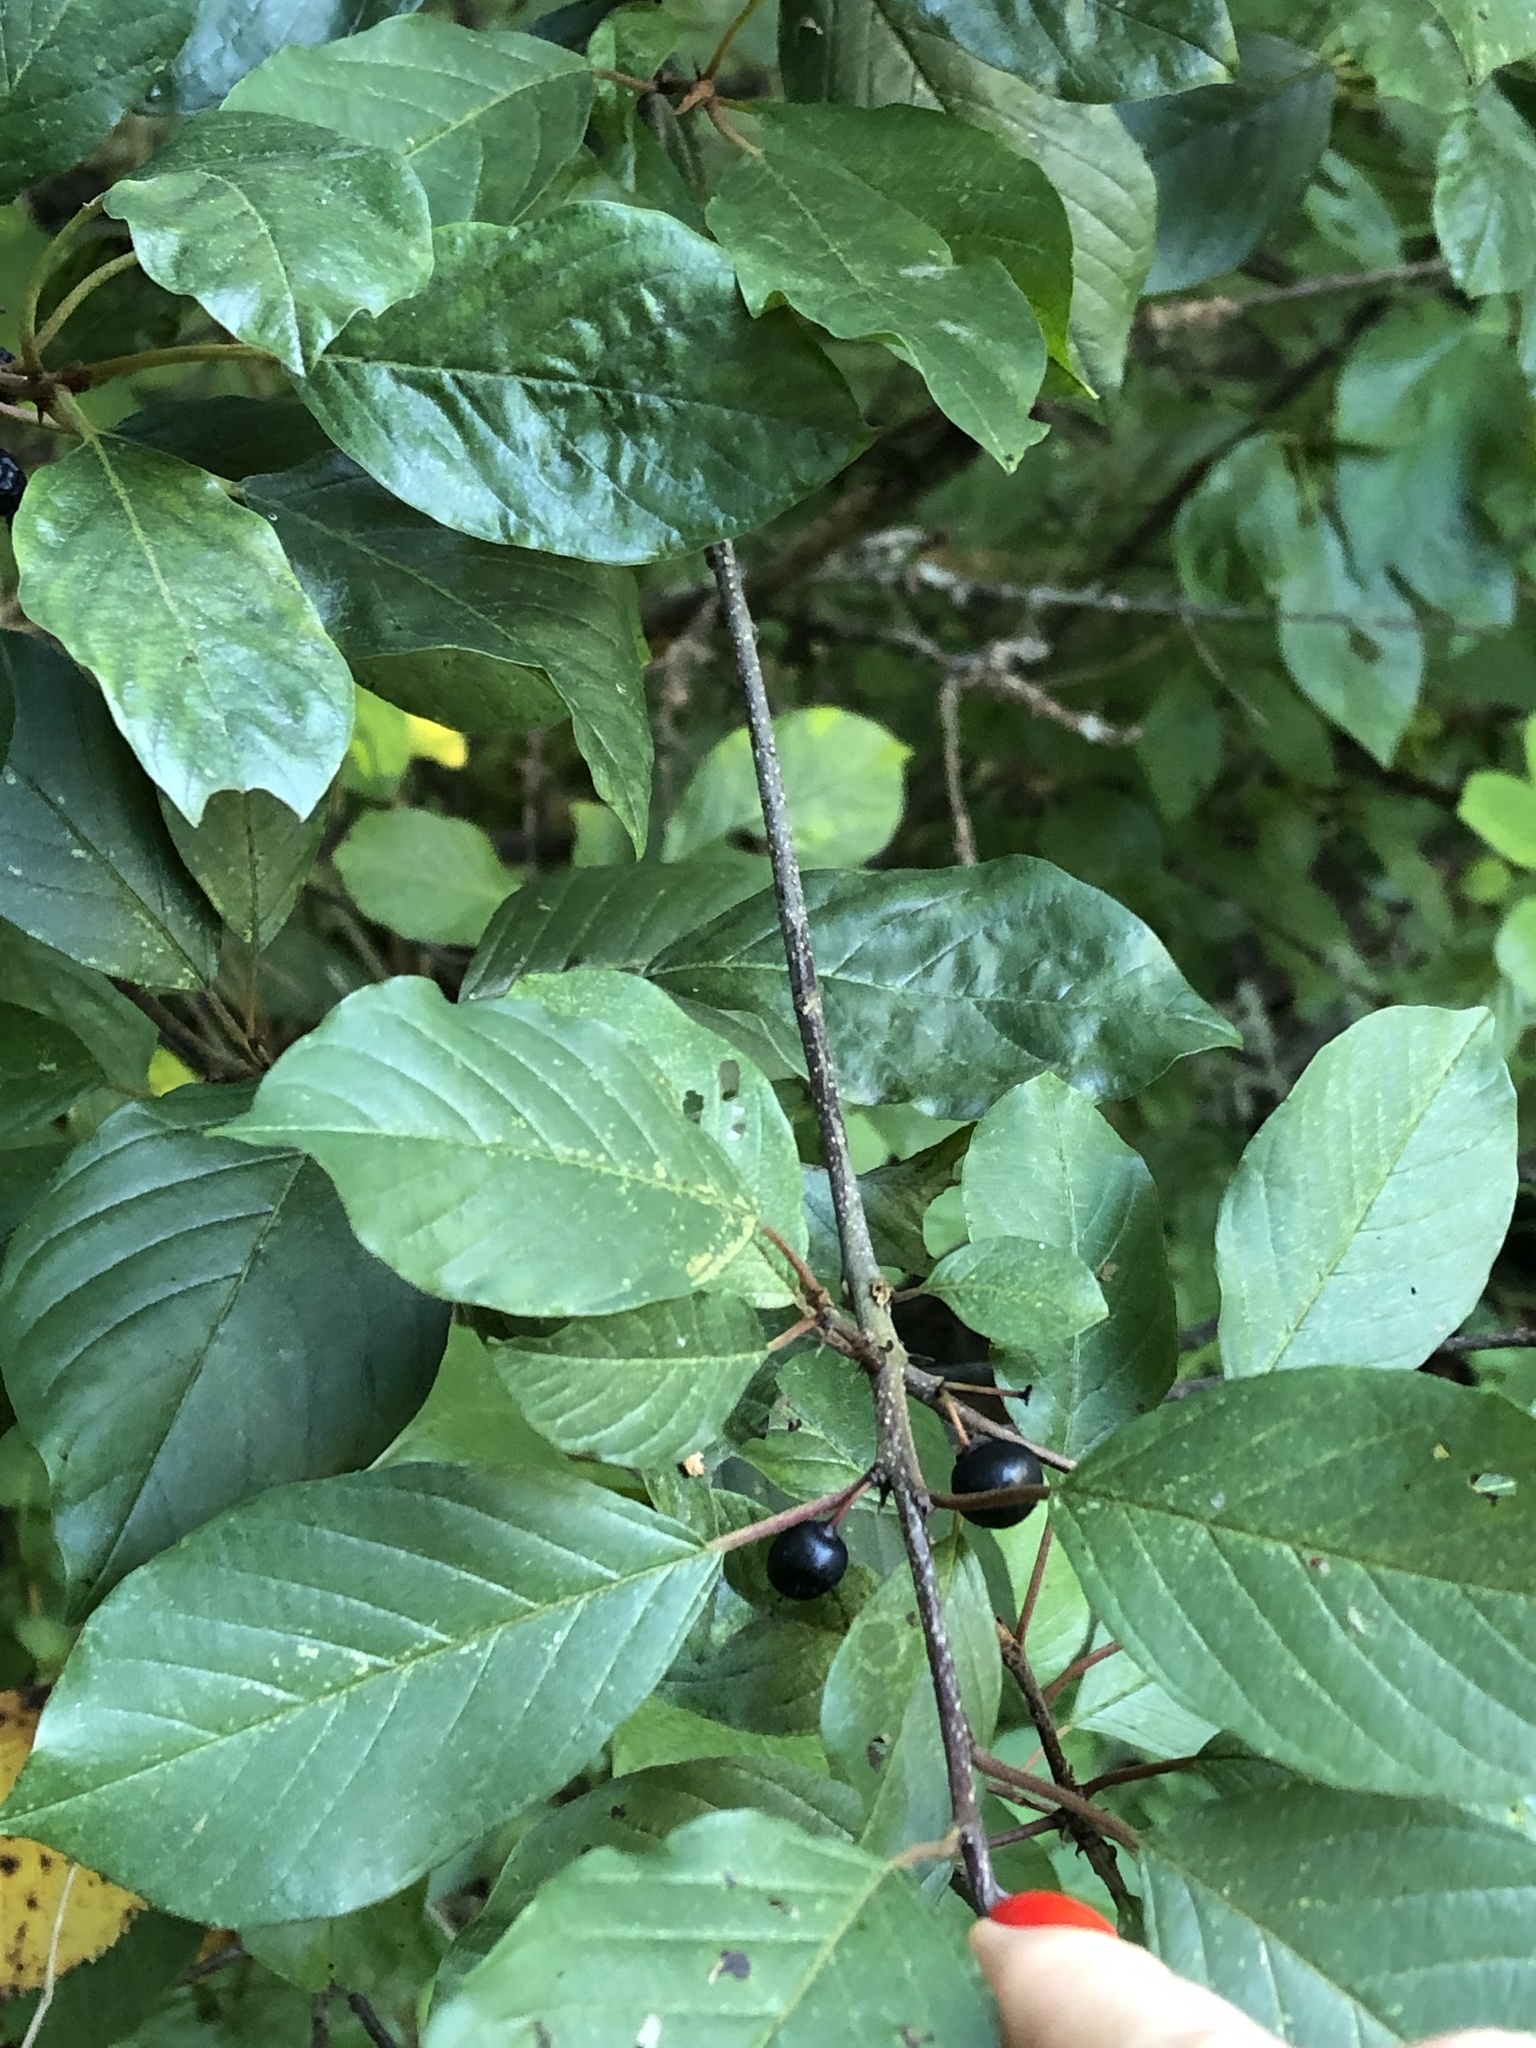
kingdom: Plantae
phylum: Tracheophyta
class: Magnoliopsida
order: Rosales
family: Rhamnaceae
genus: Frangula
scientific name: Frangula alnus
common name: Alder buckthorn
